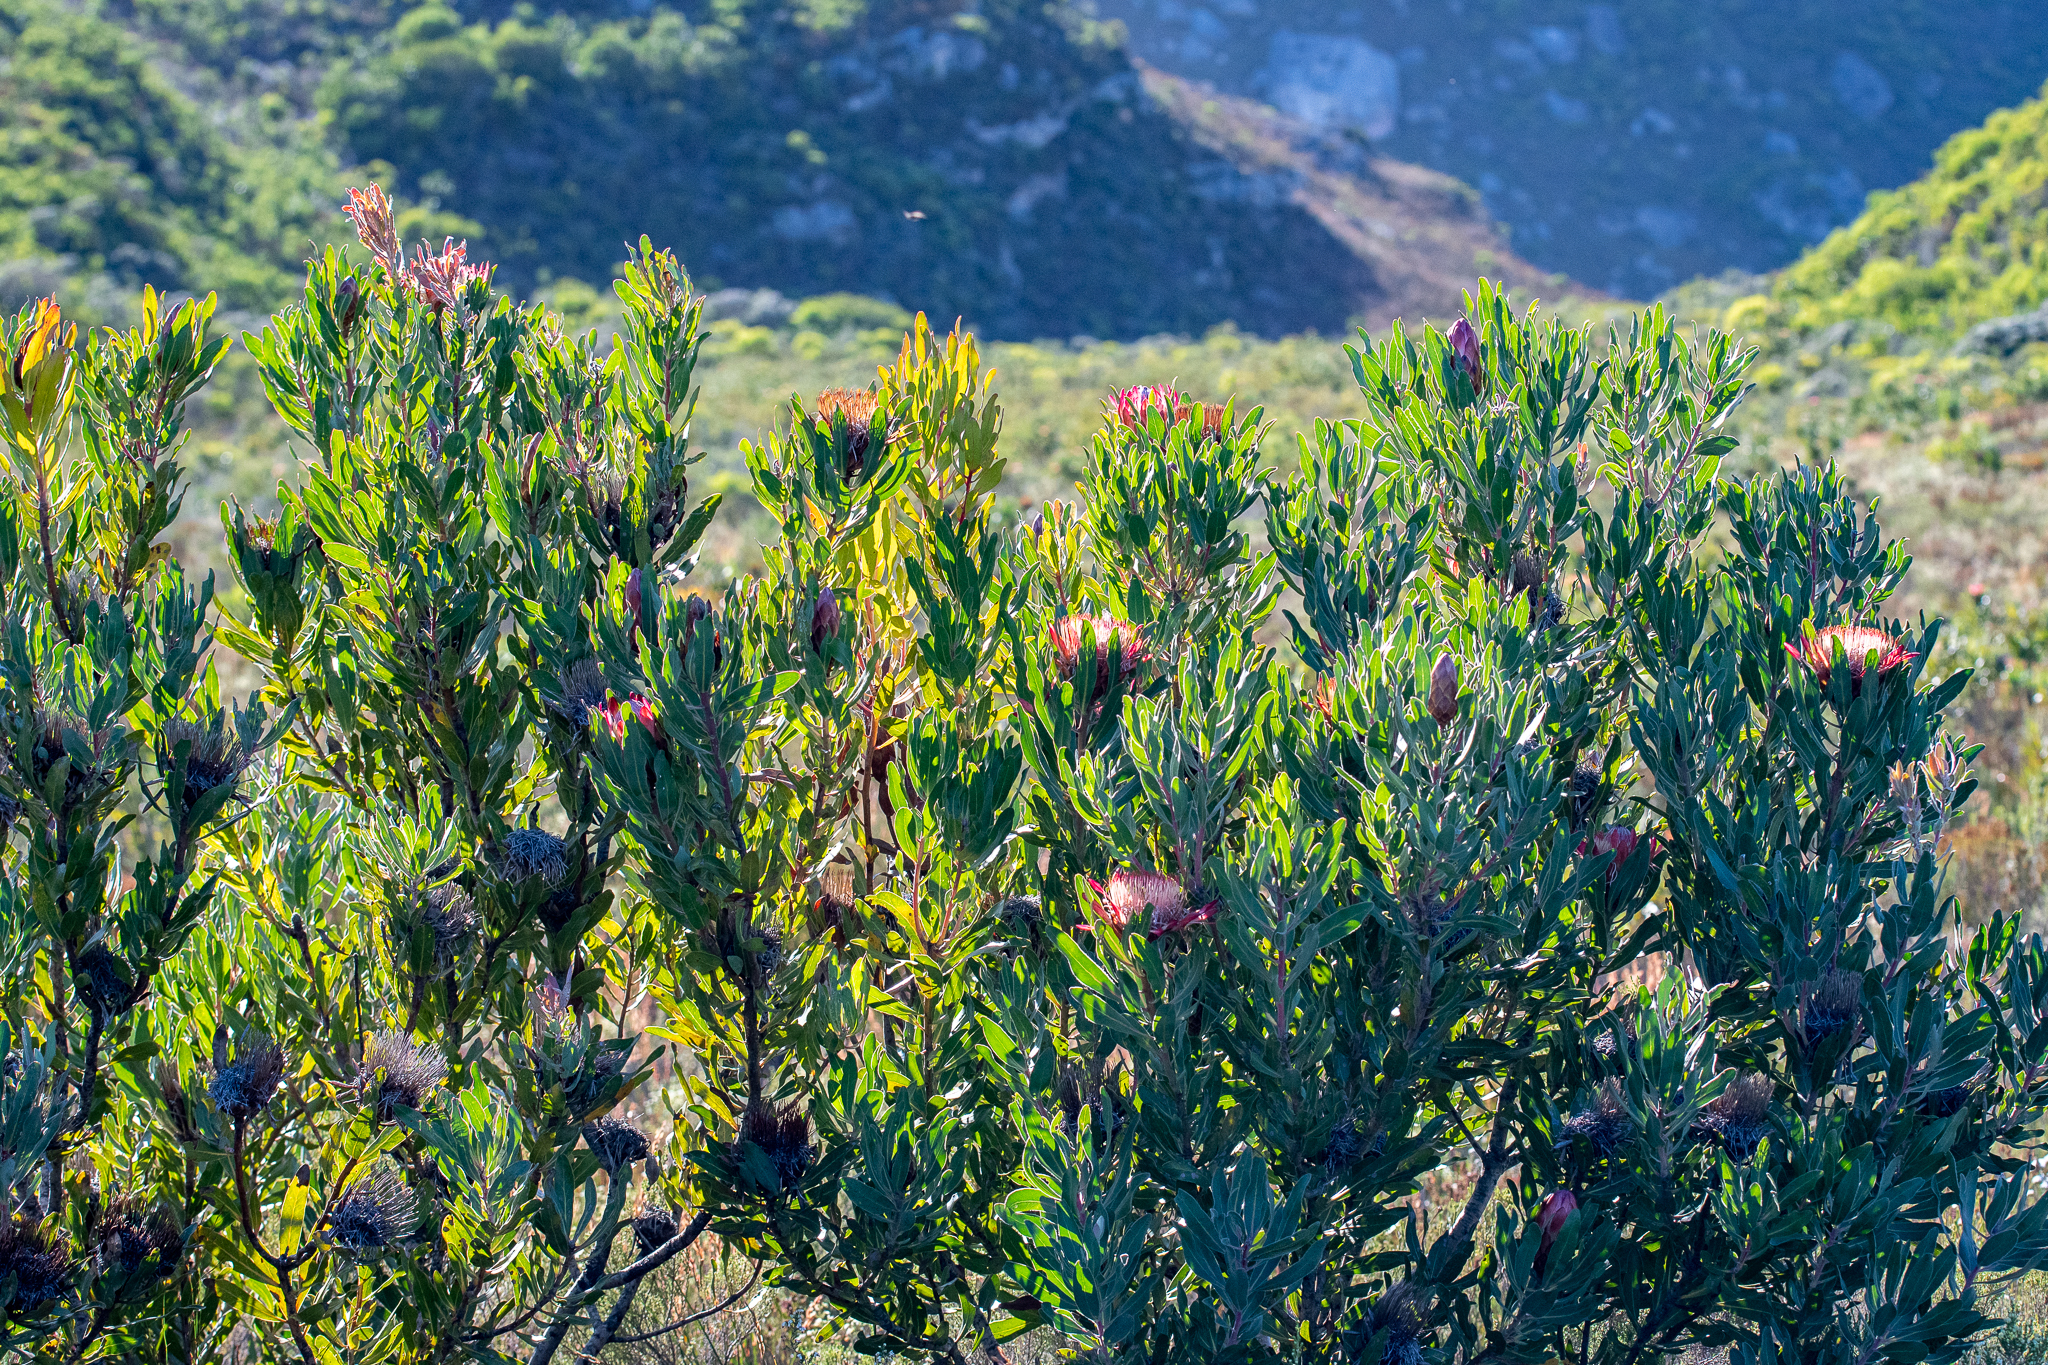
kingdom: Plantae
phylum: Tracheophyta
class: Magnoliopsida
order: Proteales
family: Proteaceae
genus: Protea
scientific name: Protea susannae
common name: Foetid-leaf sugarbush
